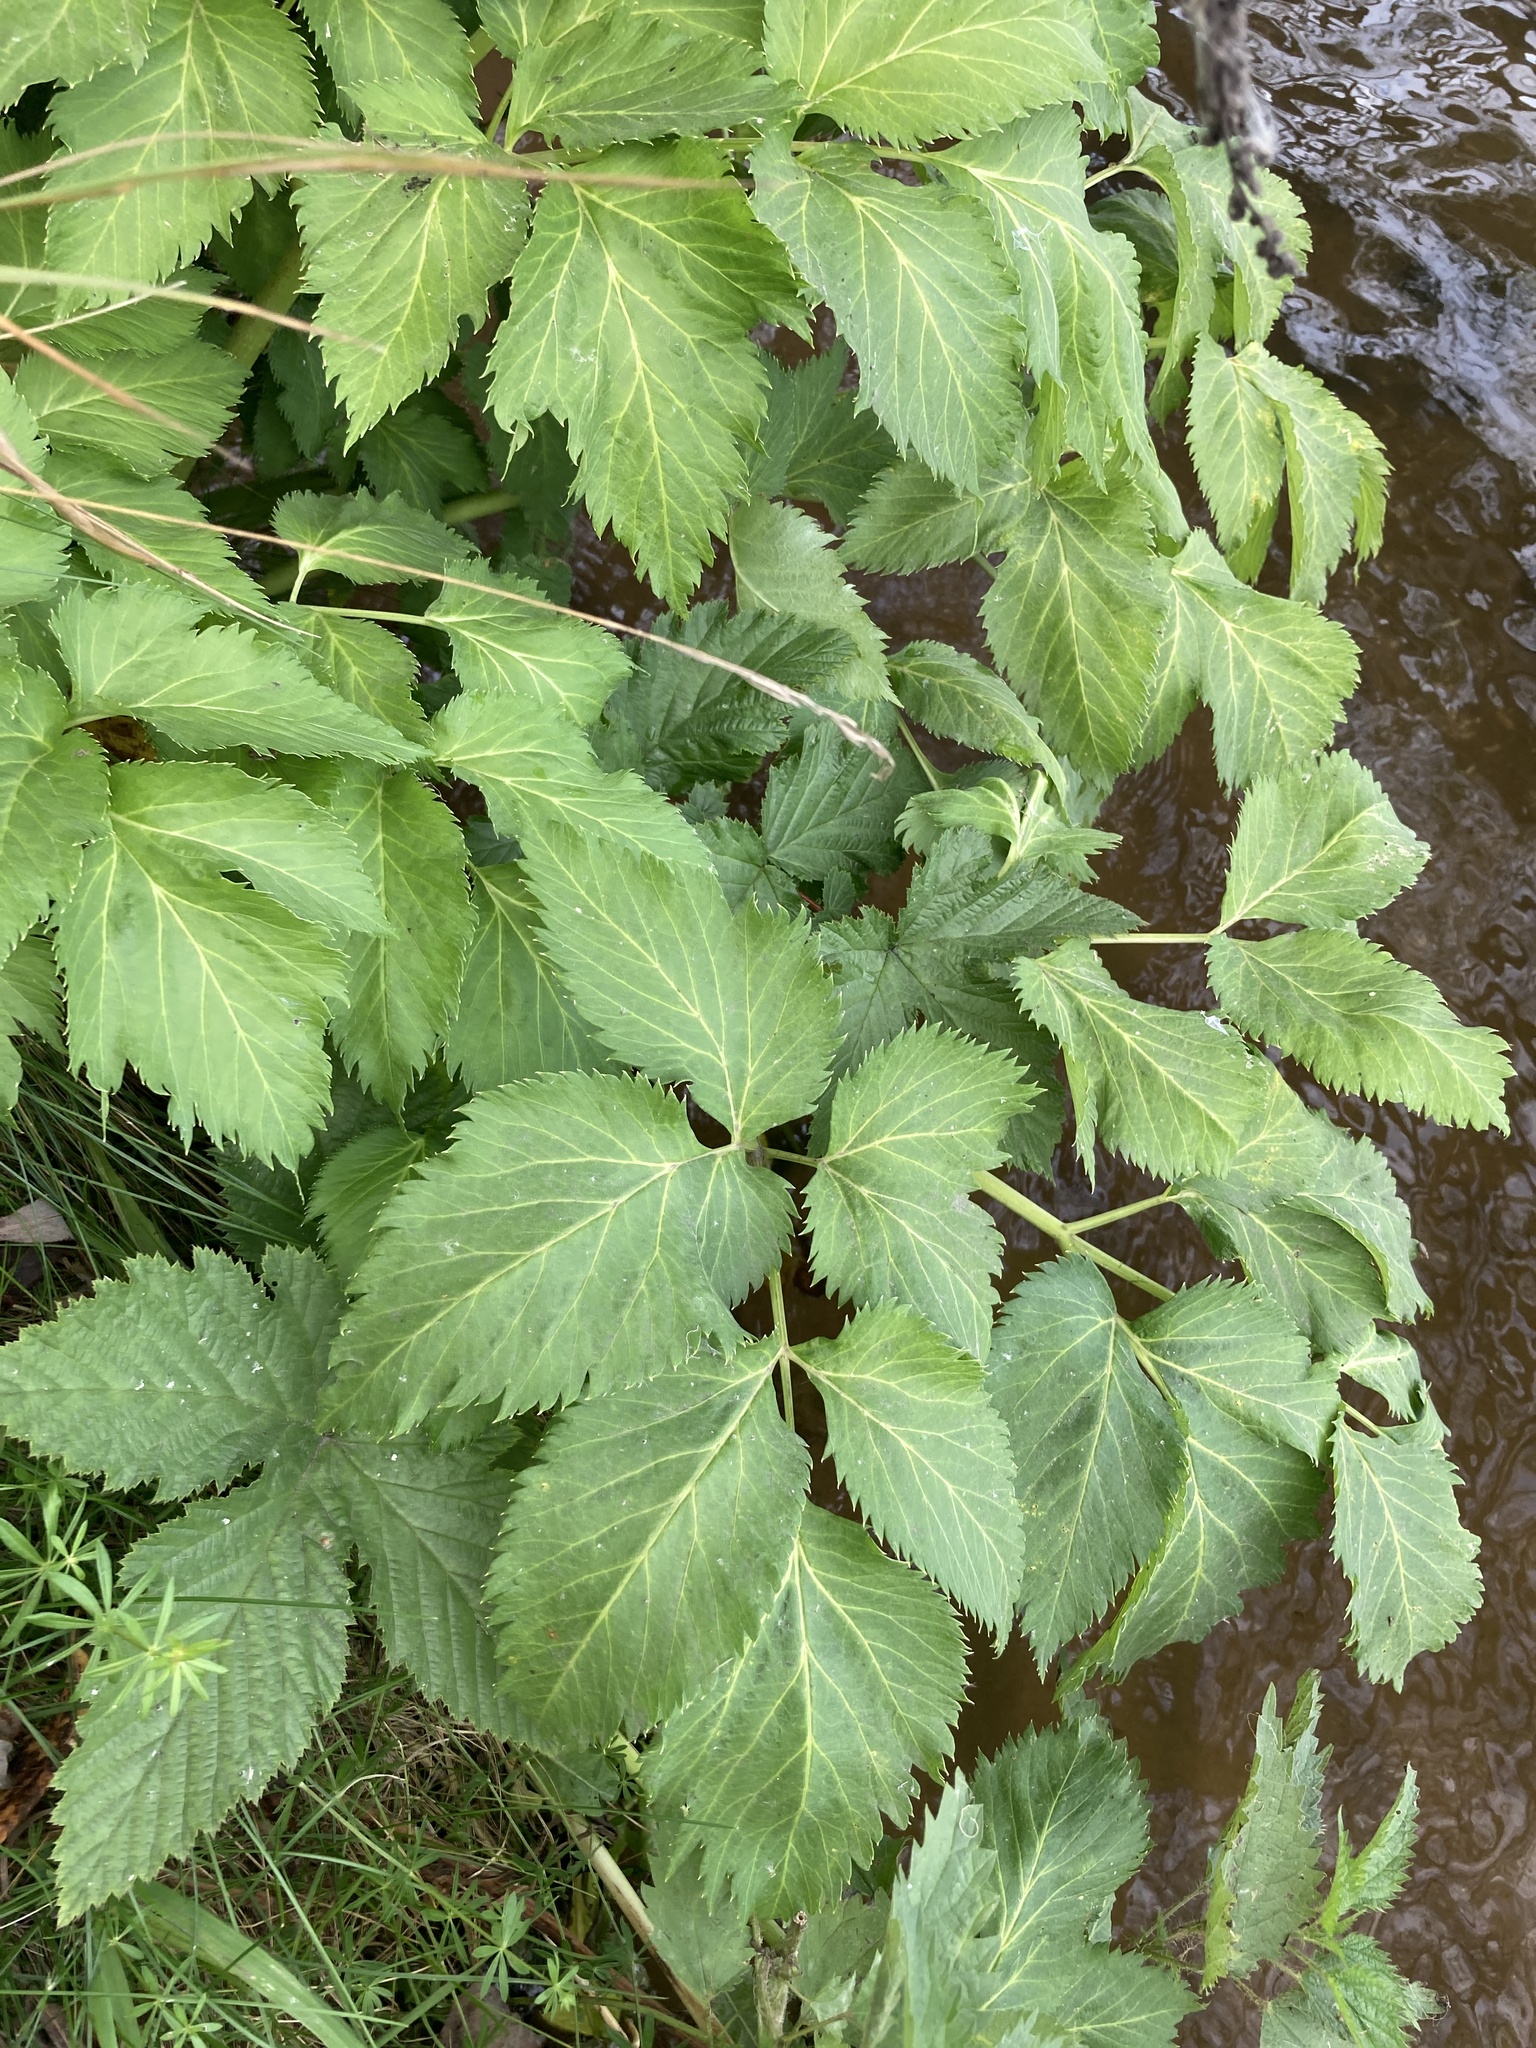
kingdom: Plantae
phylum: Tracheophyta
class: Magnoliopsida
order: Apiales
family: Apiaceae
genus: Angelica
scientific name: Angelica archangelica
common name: Garden angelica
